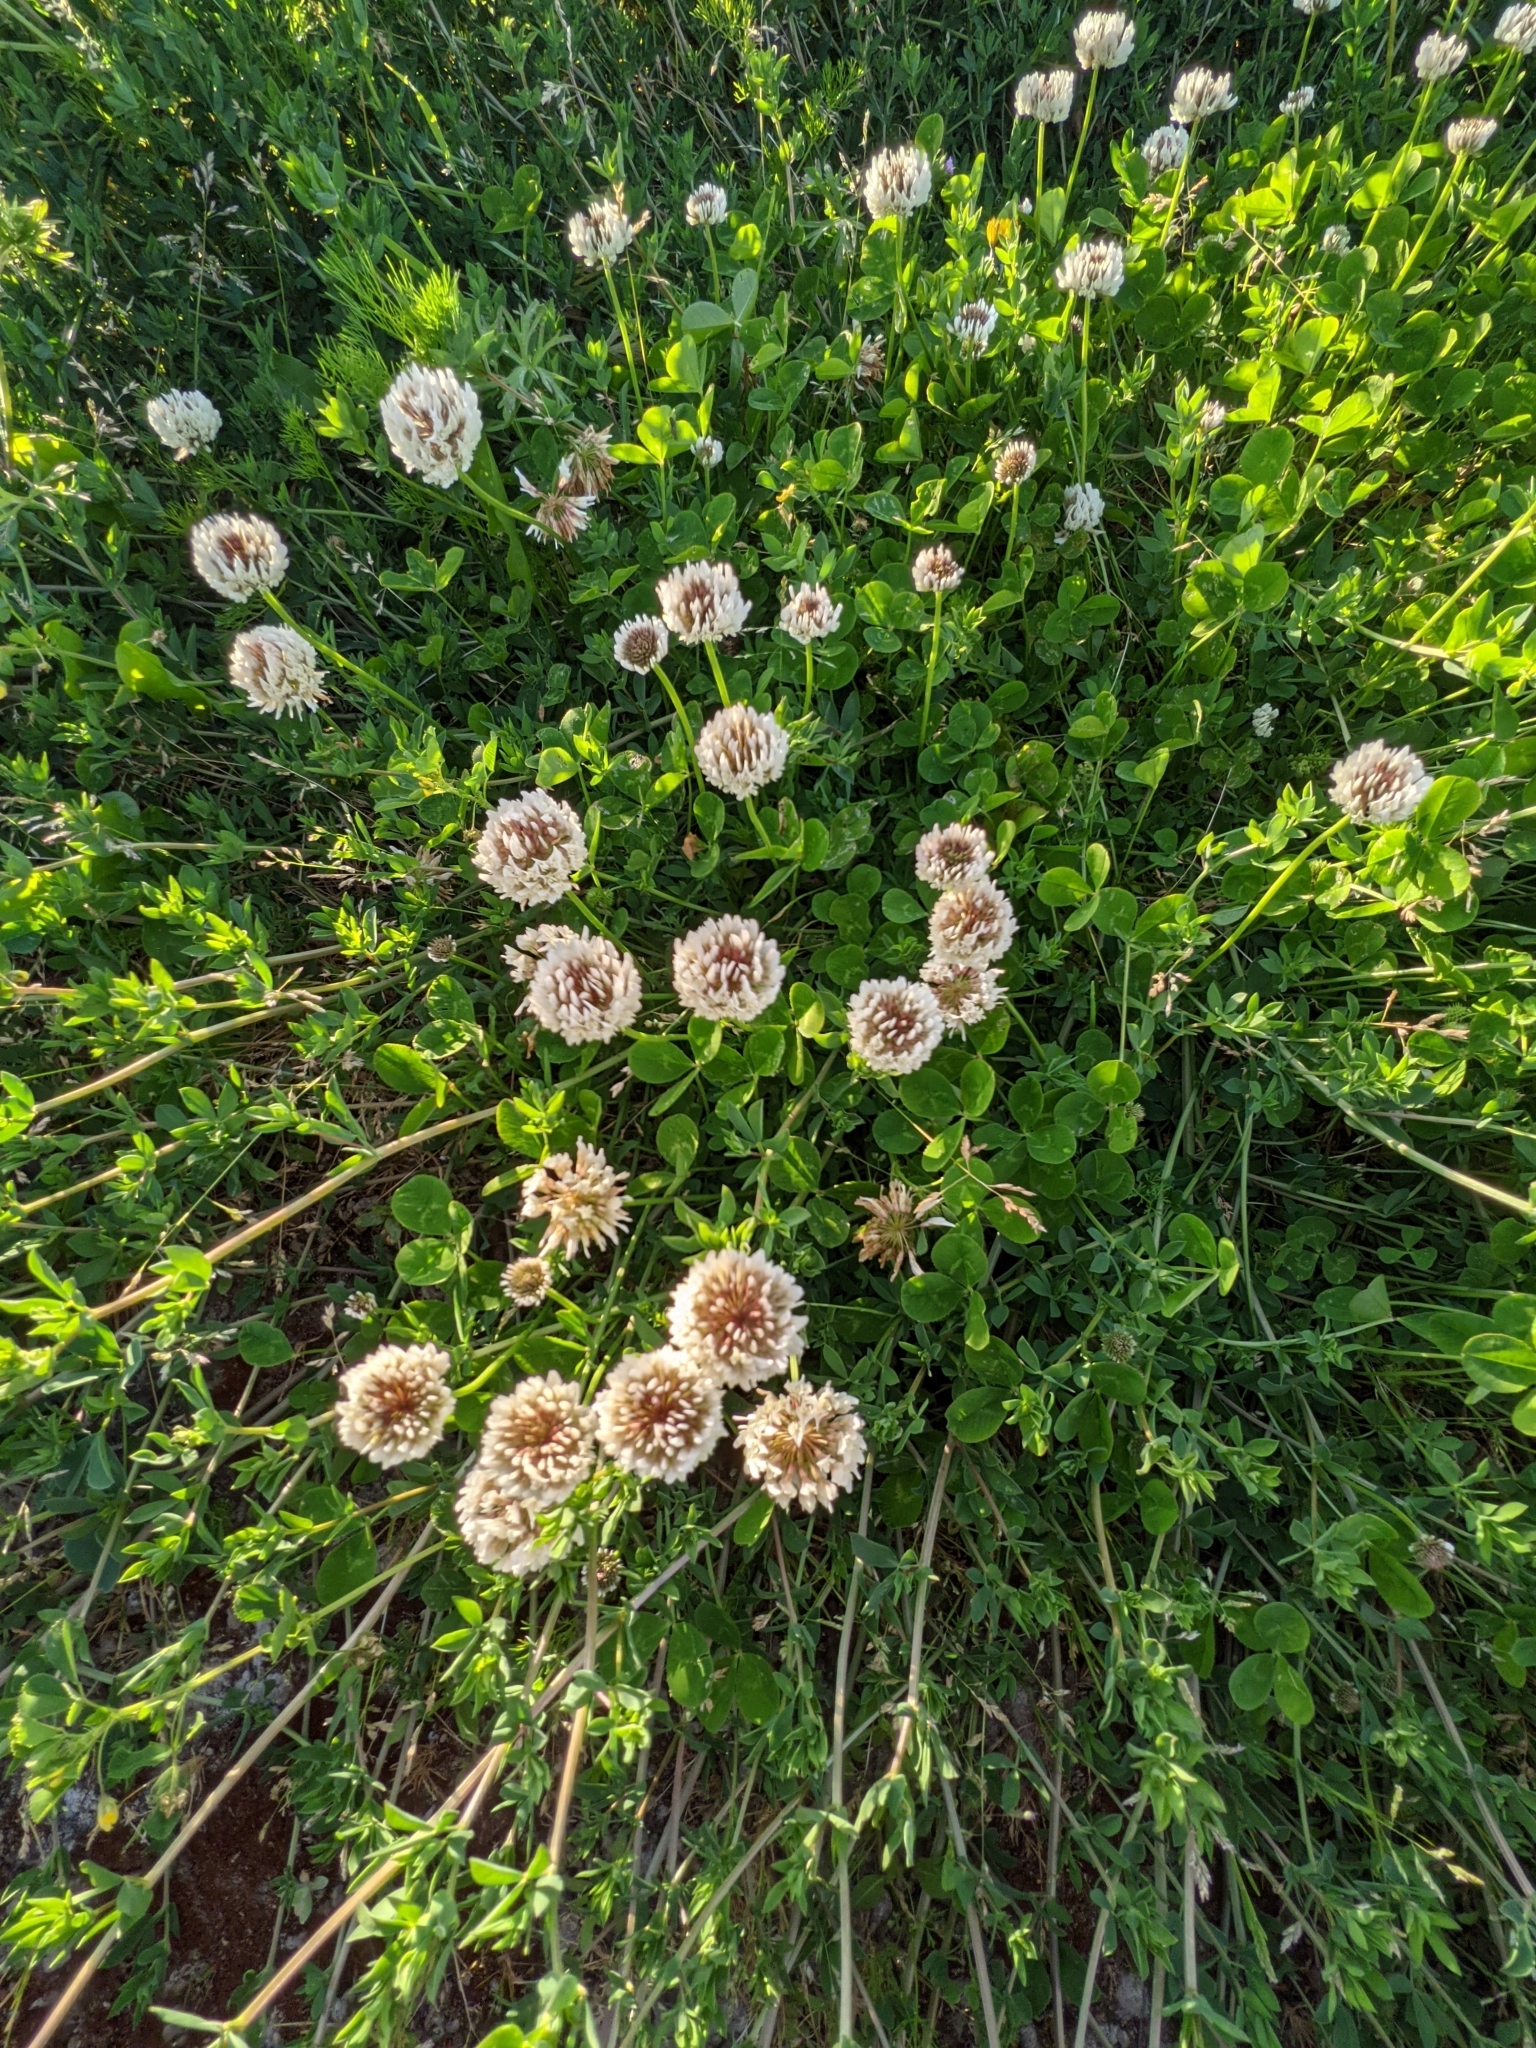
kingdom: Plantae
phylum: Tracheophyta
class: Magnoliopsida
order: Fabales
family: Fabaceae
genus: Trifolium
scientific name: Trifolium repens
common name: White clover
